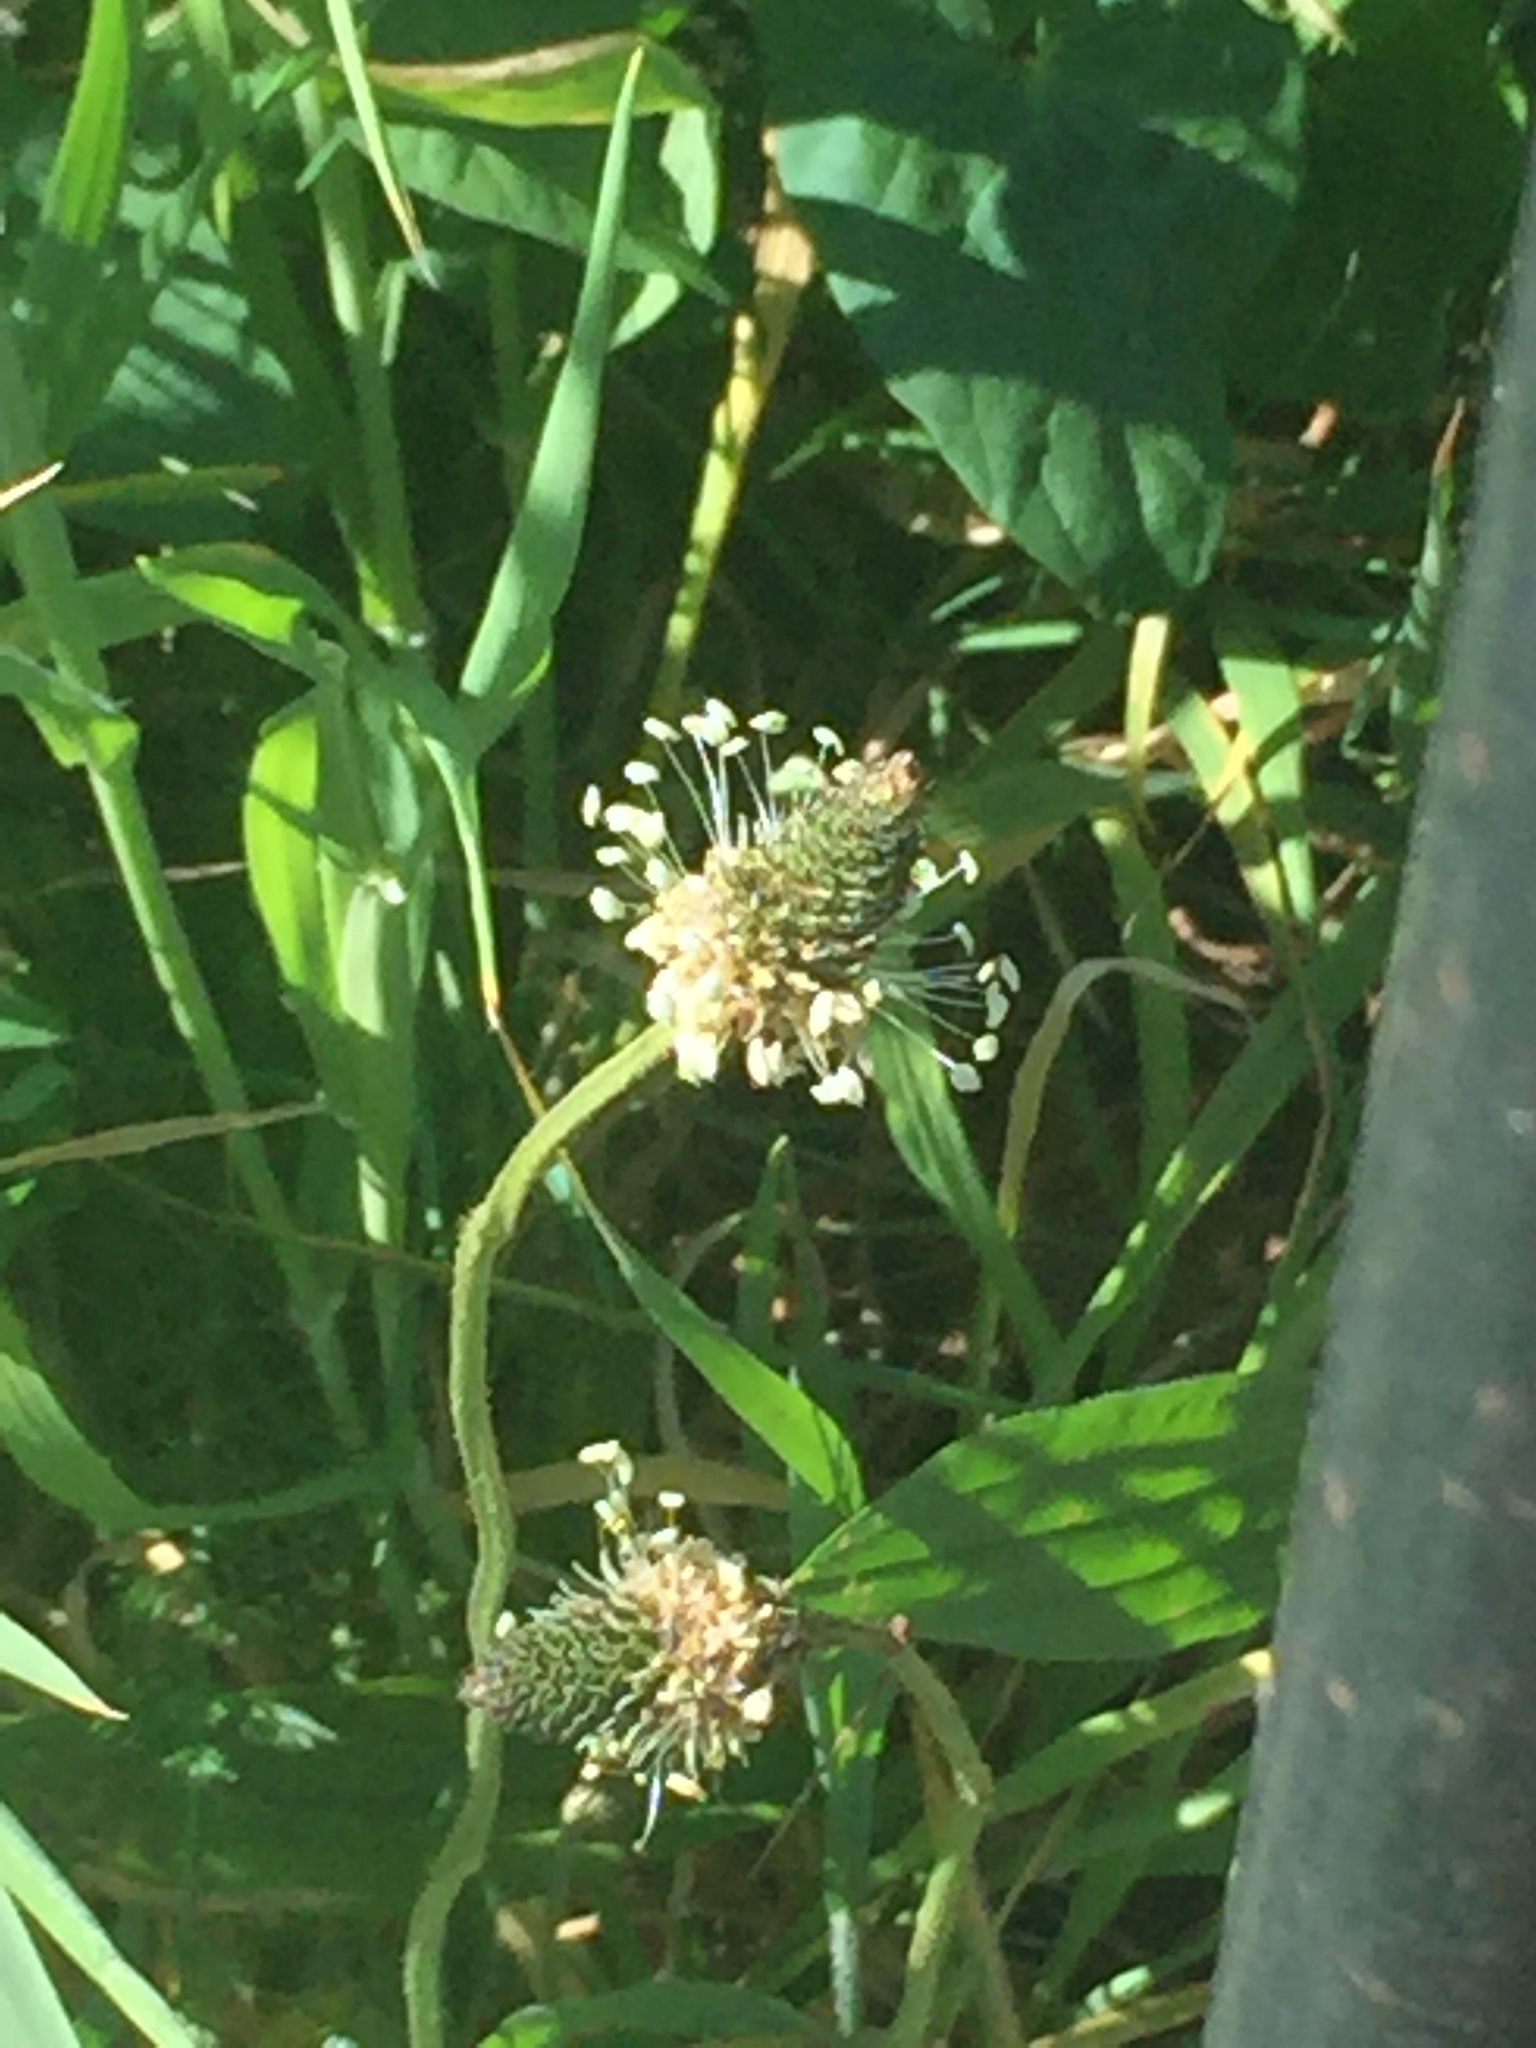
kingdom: Plantae
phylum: Tracheophyta
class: Magnoliopsida
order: Lamiales
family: Plantaginaceae
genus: Plantago
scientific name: Plantago lanceolata
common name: Ribwort plantain
